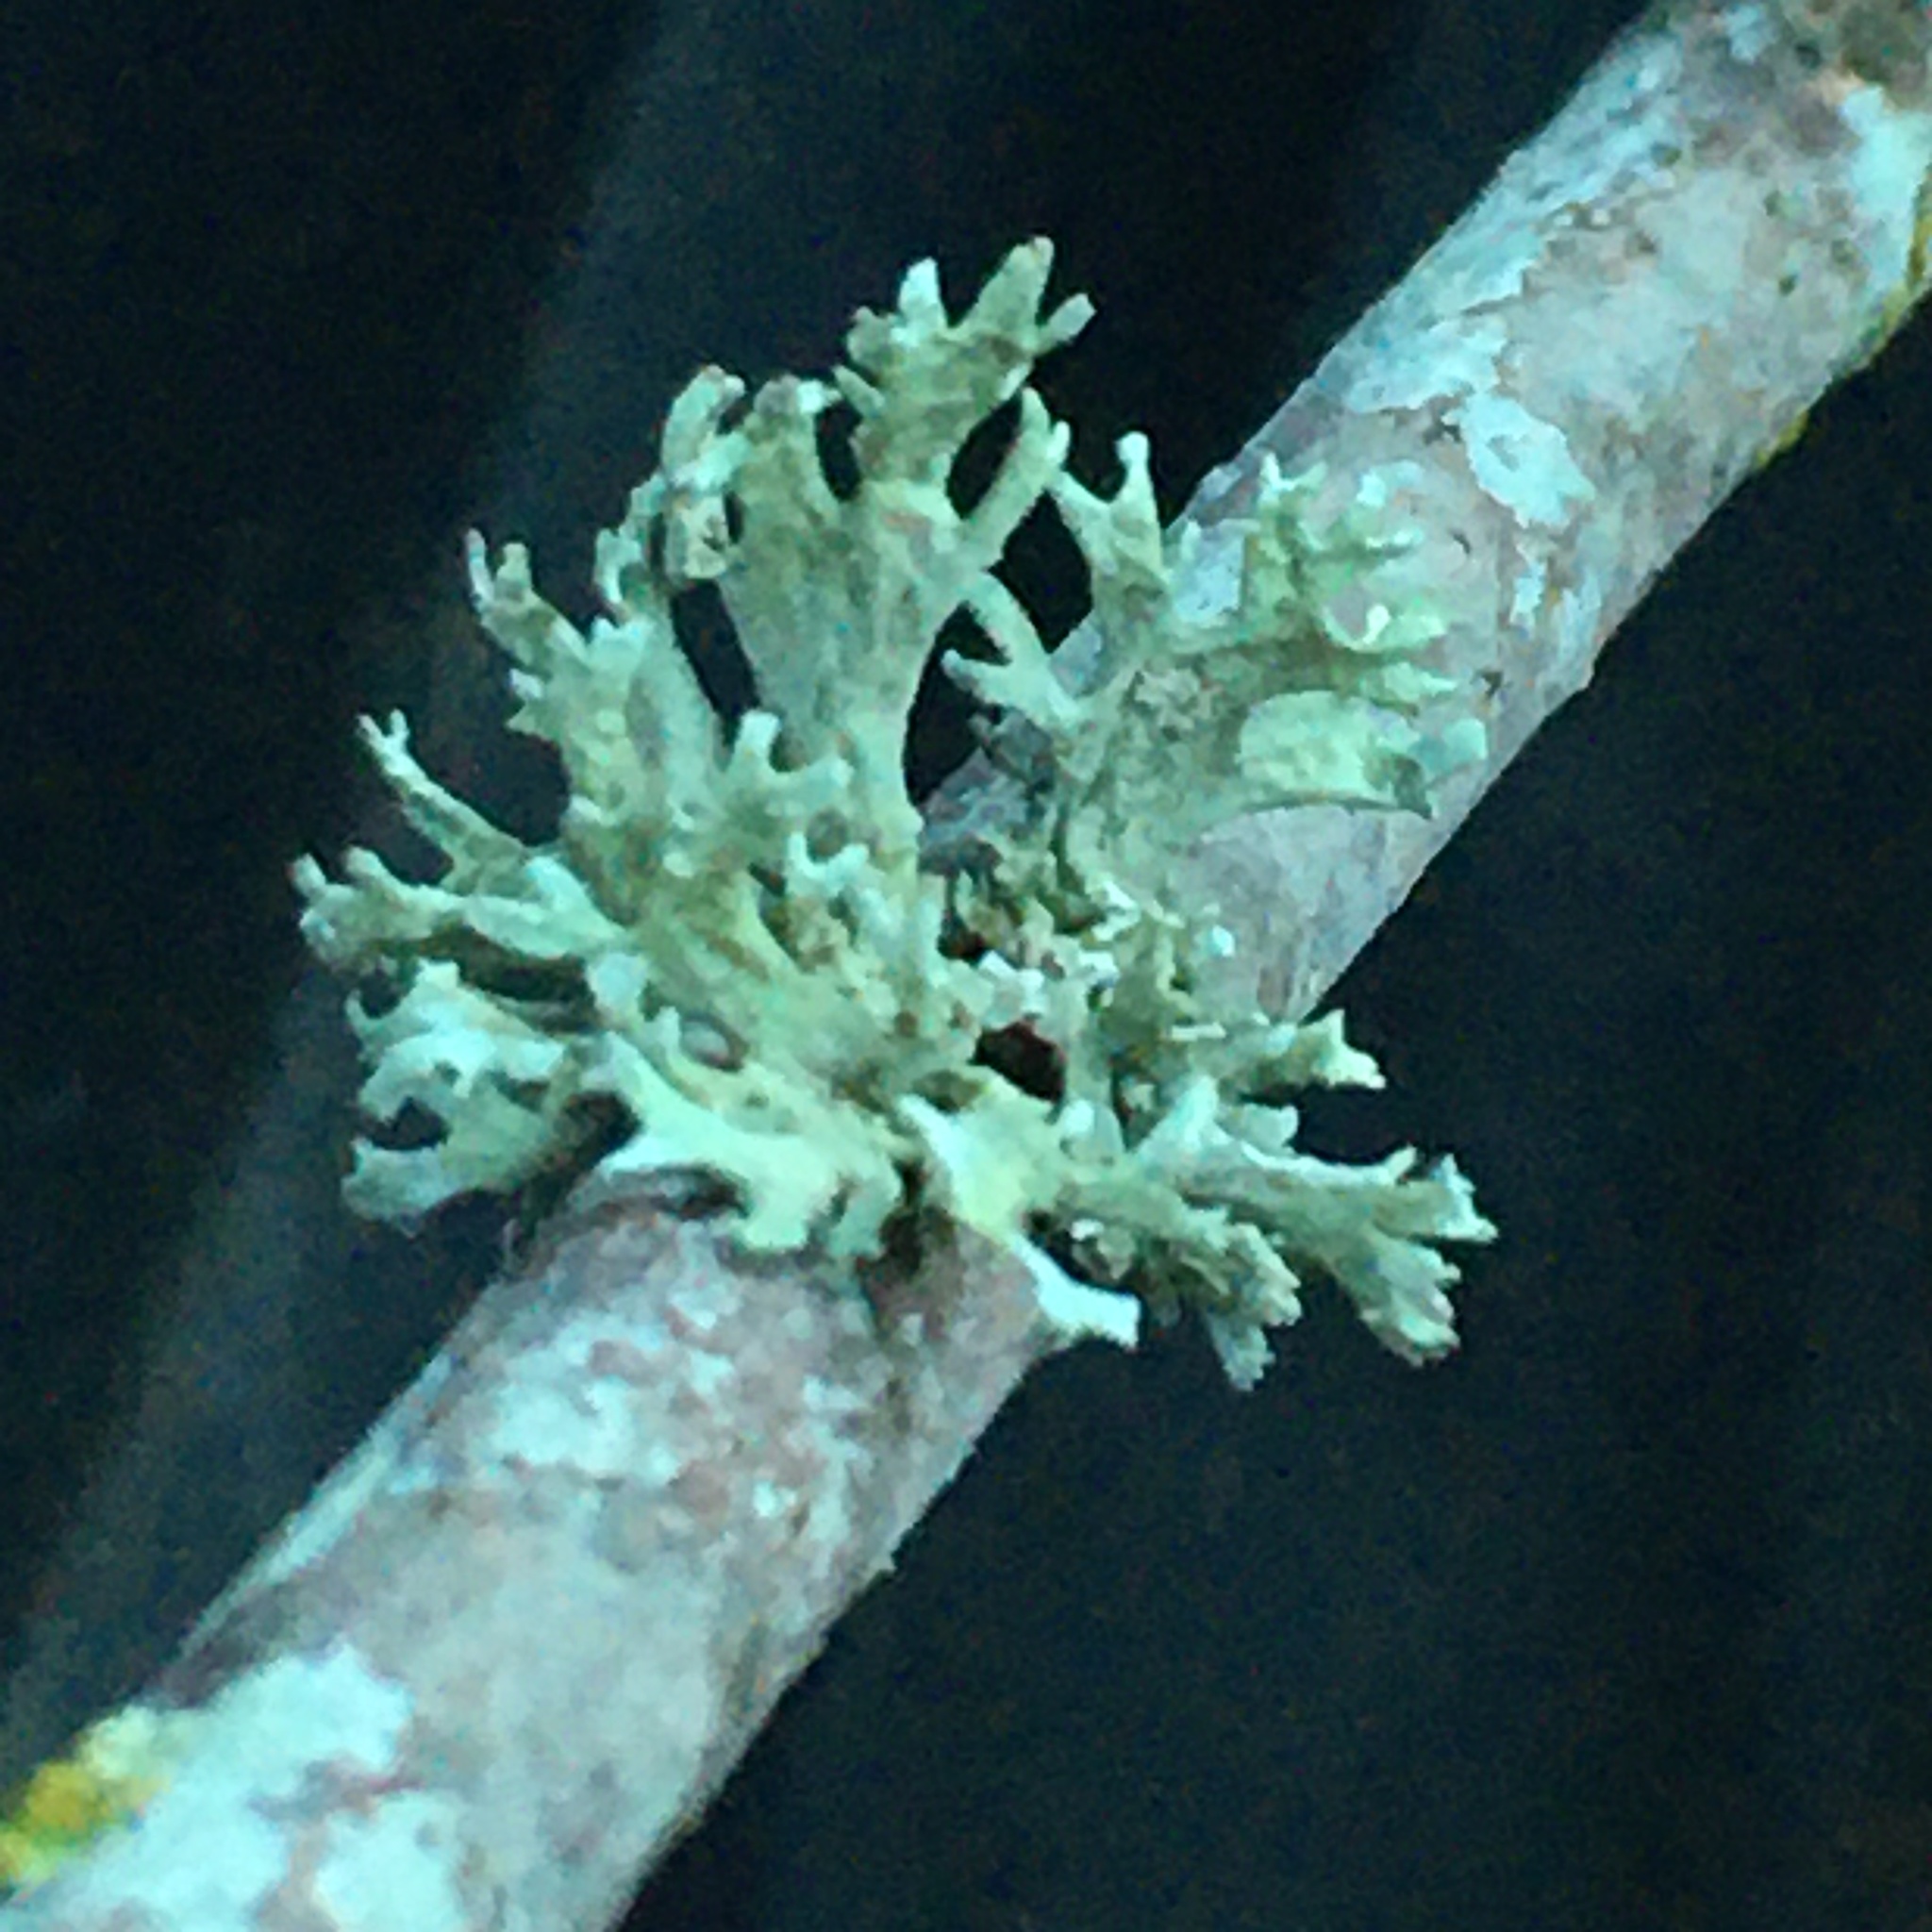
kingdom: Fungi
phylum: Ascomycota
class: Lecanoromycetes
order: Lecanorales
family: Parmeliaceae
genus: Evernia
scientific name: Evernia prunastri
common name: Oak moss
